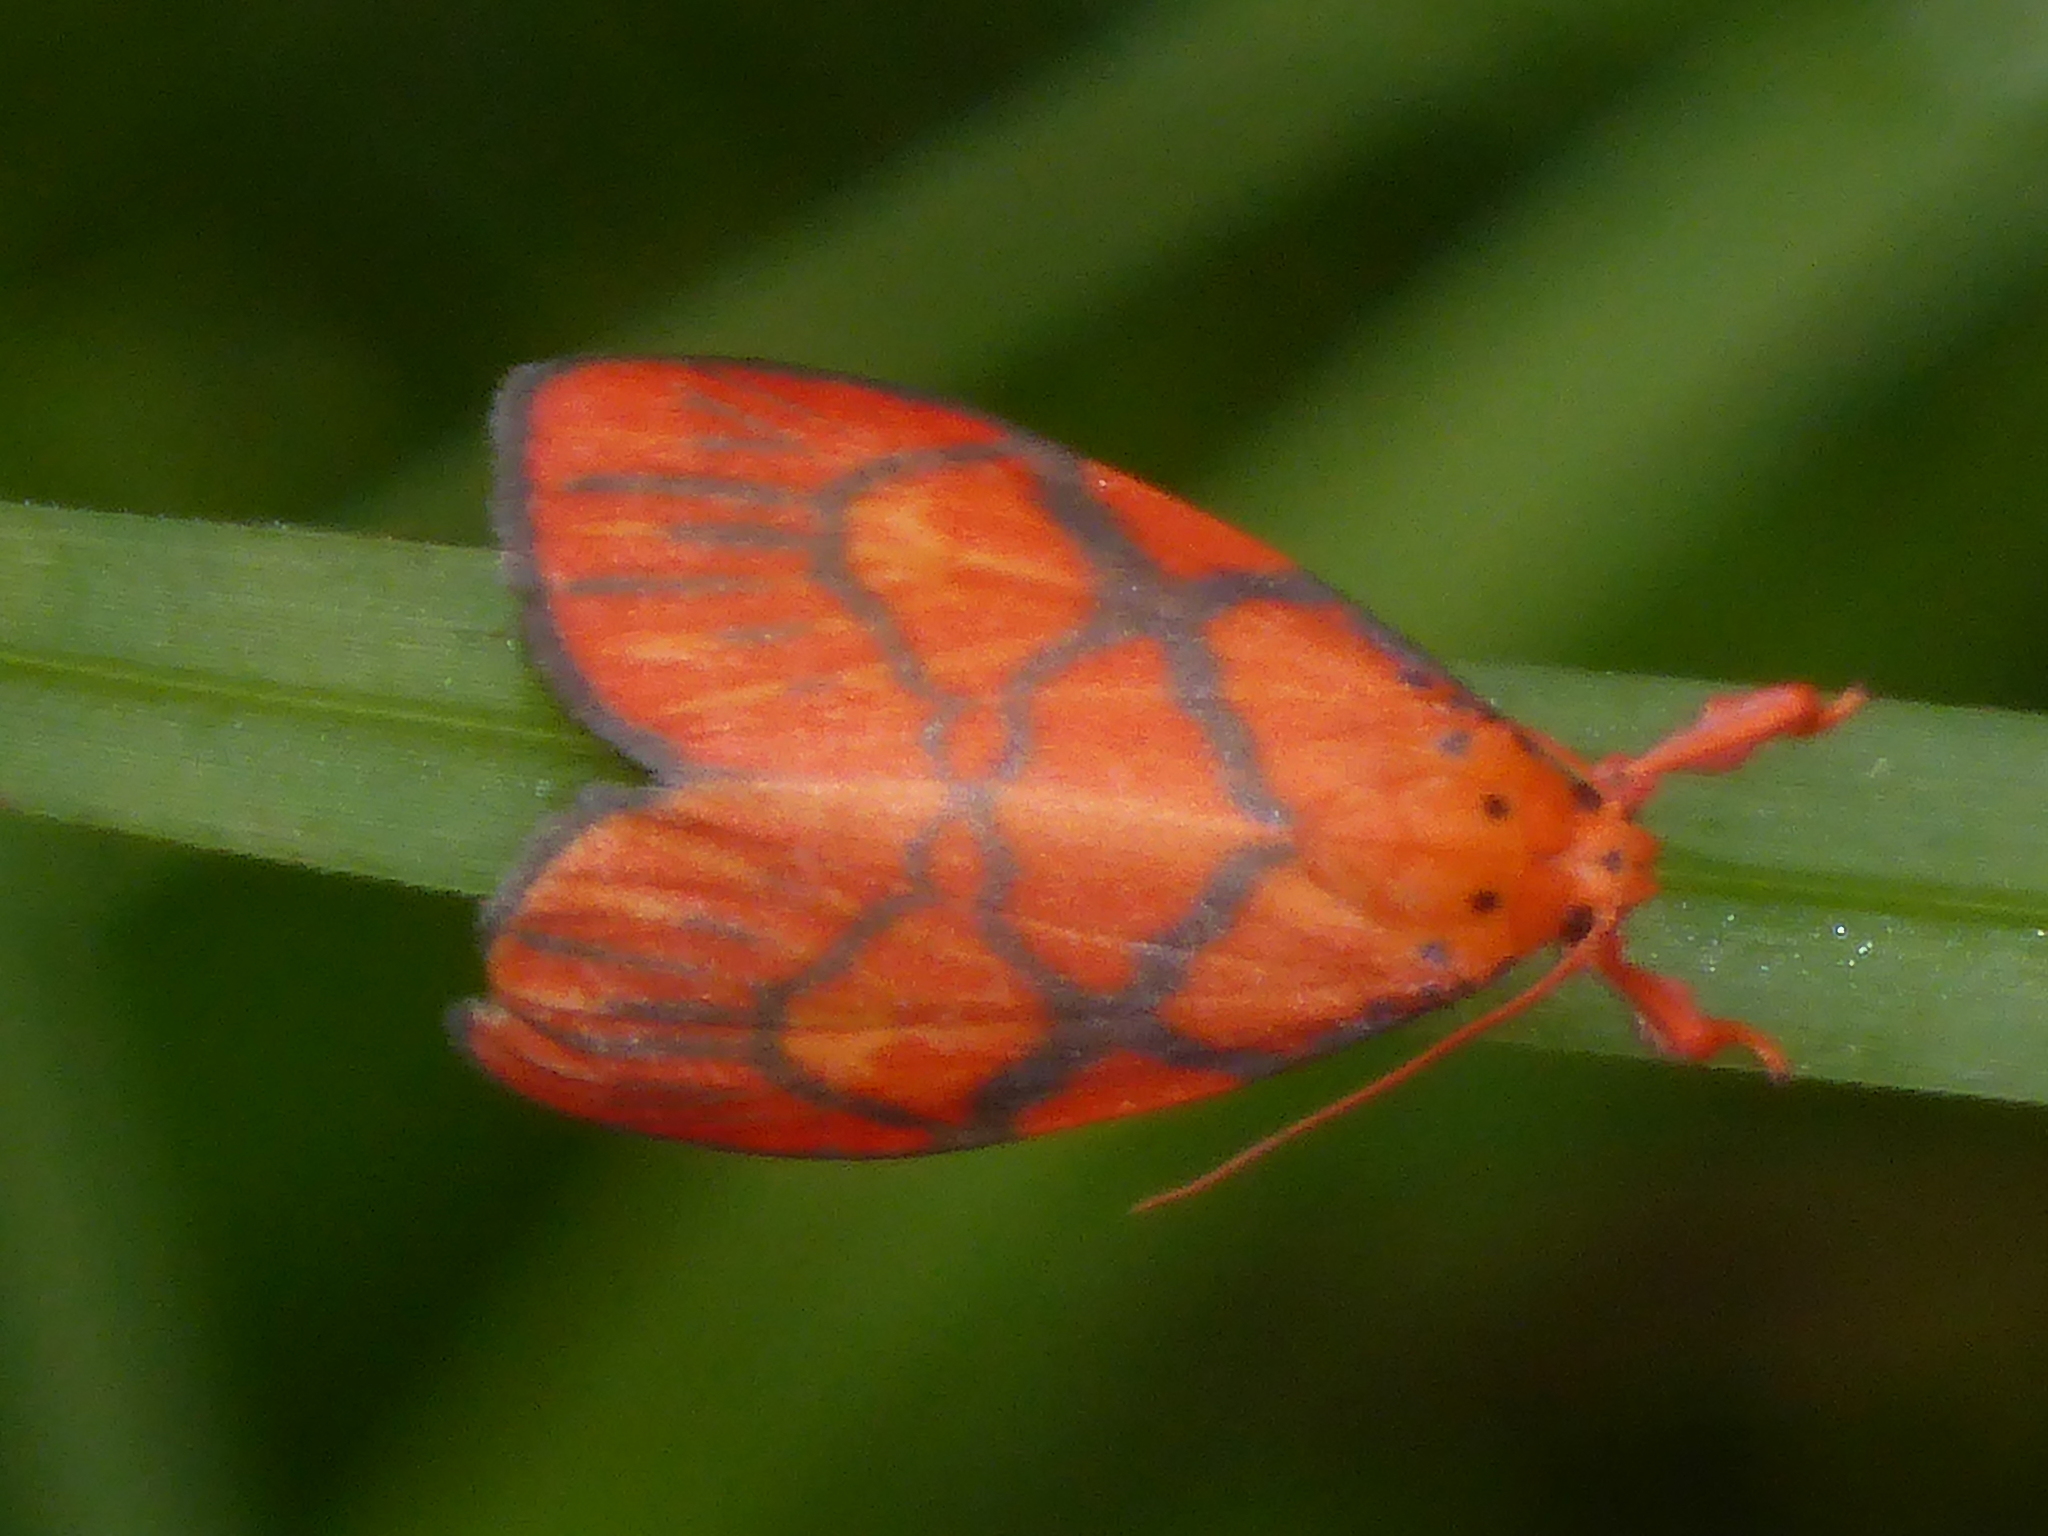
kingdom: Animalia
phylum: Arthropoda
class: Insecta
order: Lepidoptera
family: Erebidae
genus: Processine
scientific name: Processine cruciata
